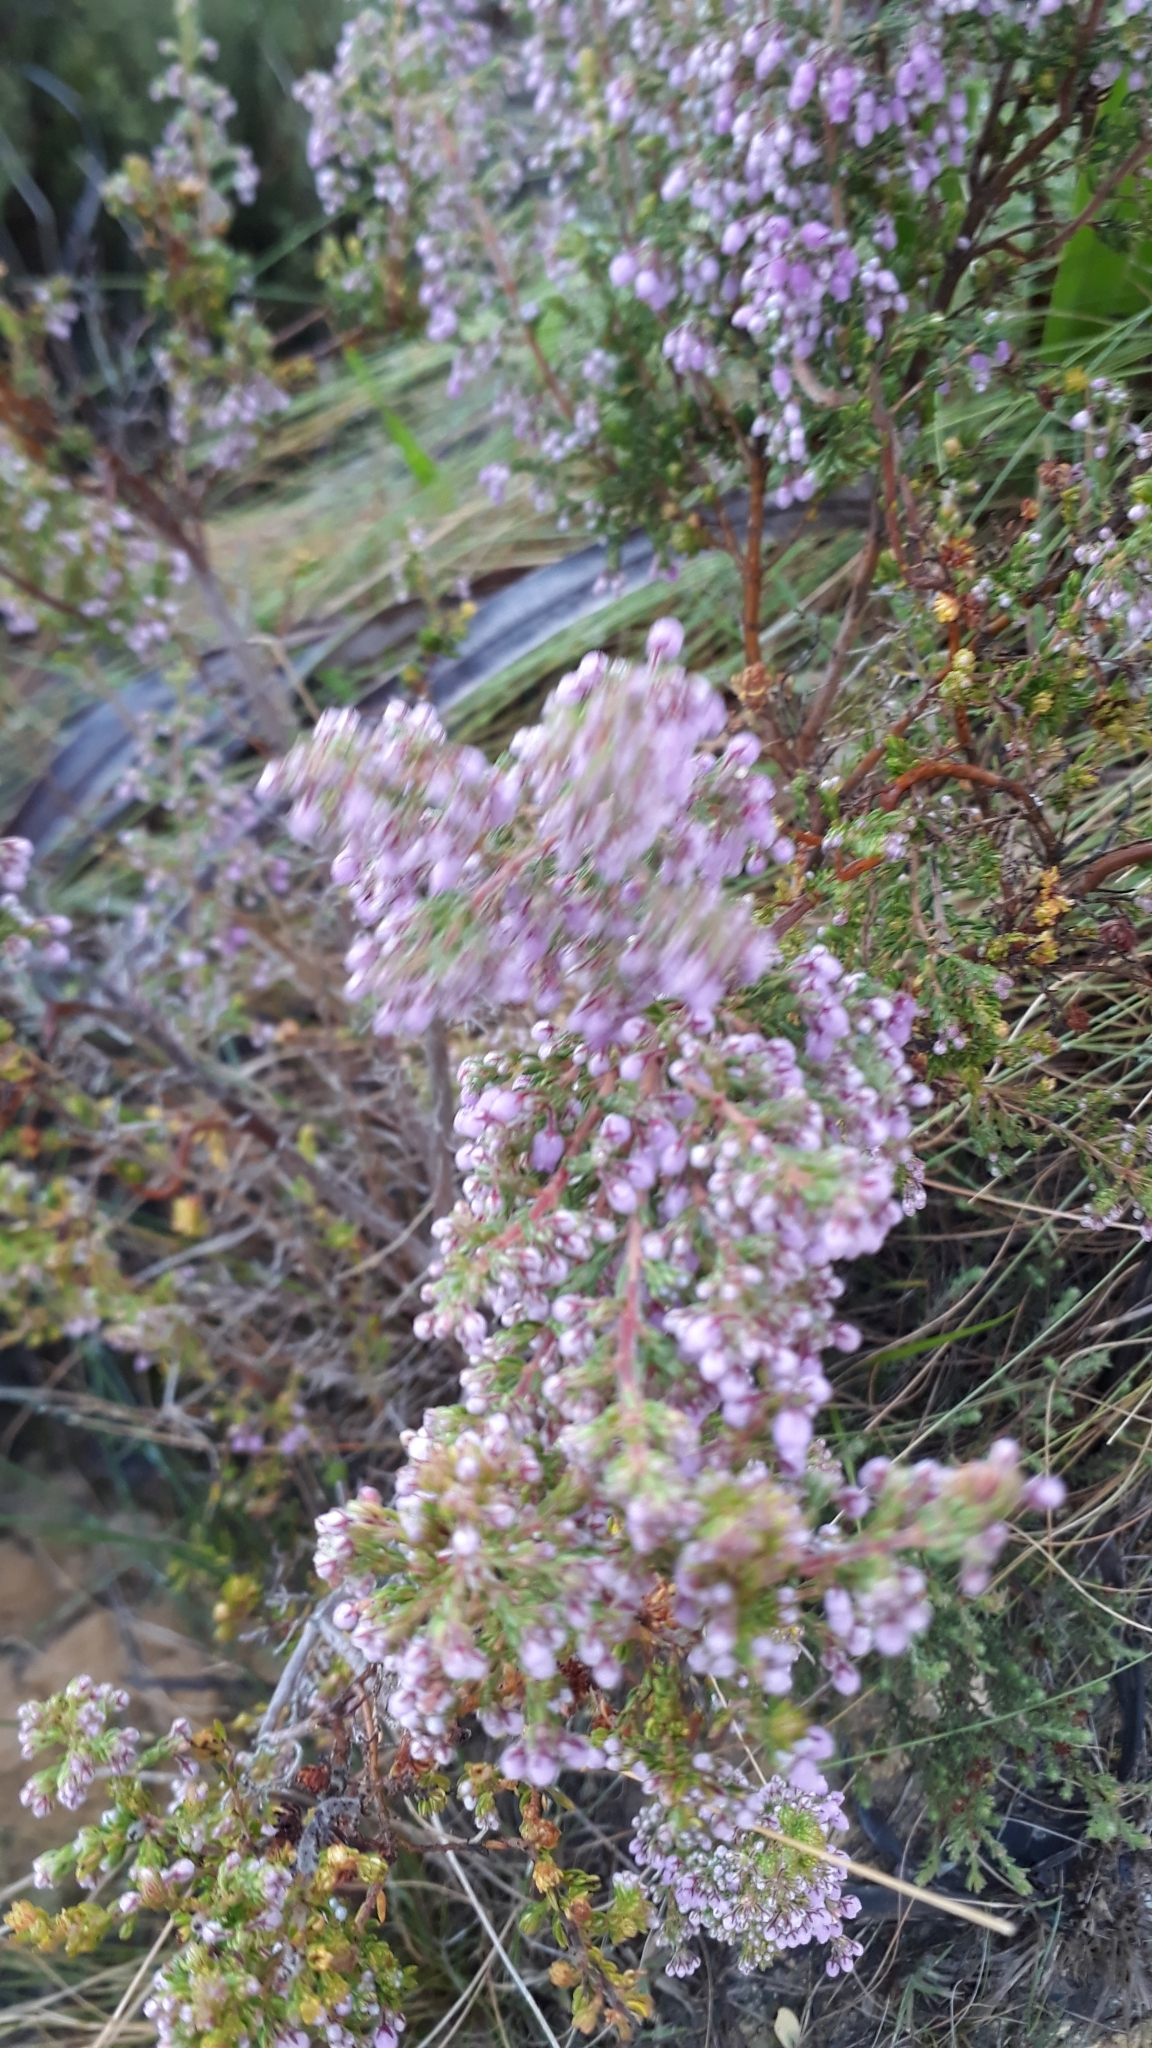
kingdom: Plantae
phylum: Tracheophyta
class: Magnoliopsida
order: Ericales
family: Ericaceae
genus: Erica
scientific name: Erica hirtiflora
